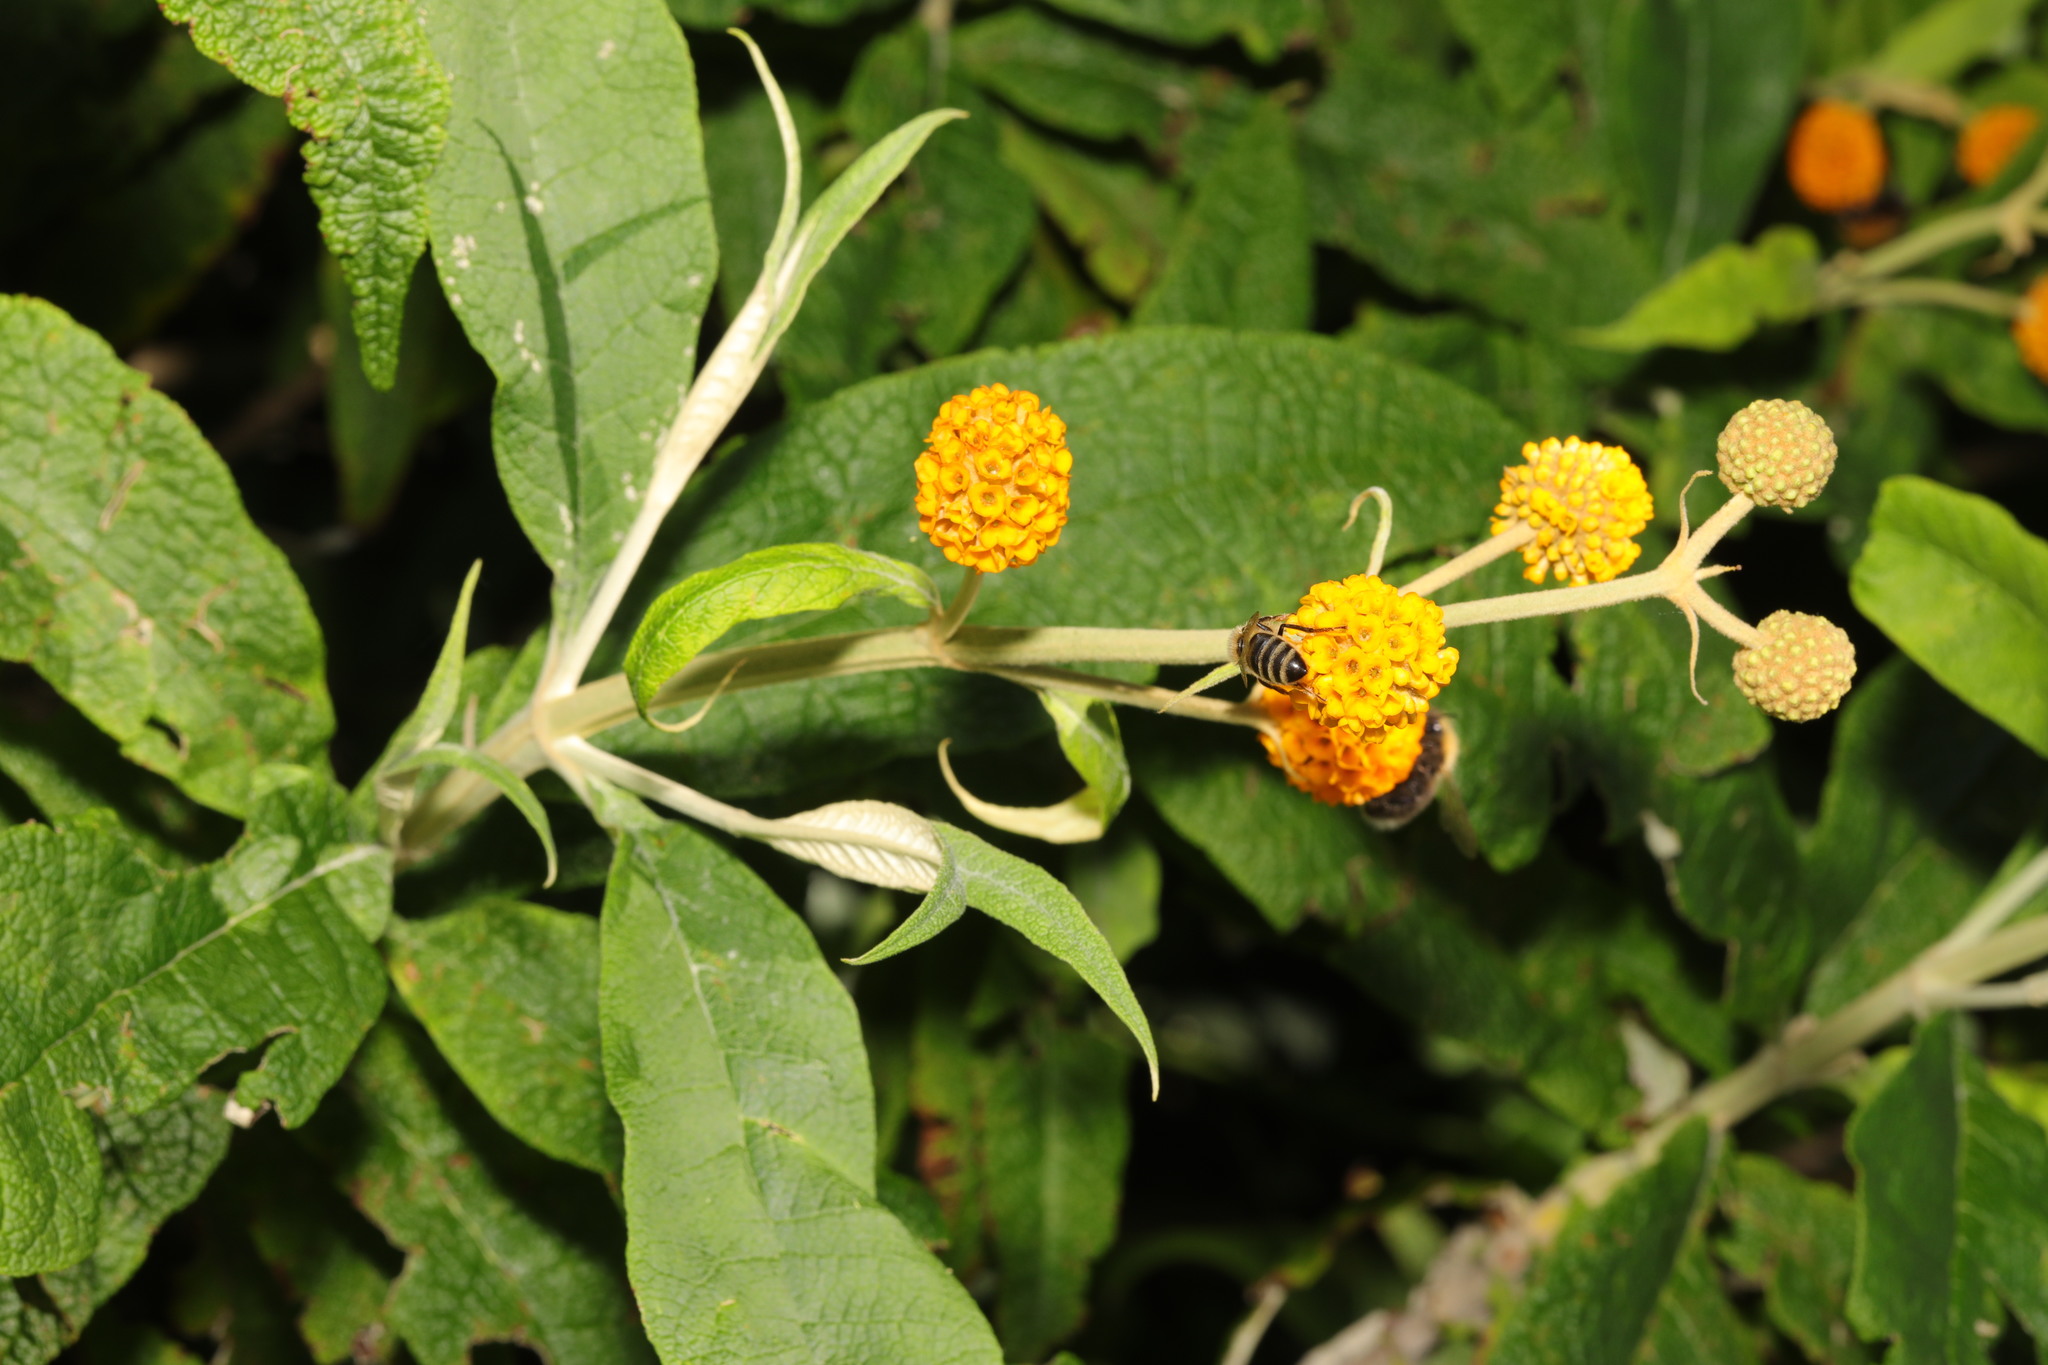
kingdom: Plantae
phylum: Tracheophyta
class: Magnoliopsida
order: Lamiales
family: Scrophulariaceae
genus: Buddleja
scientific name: Buddleja globosa
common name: Orange-ball-tree
